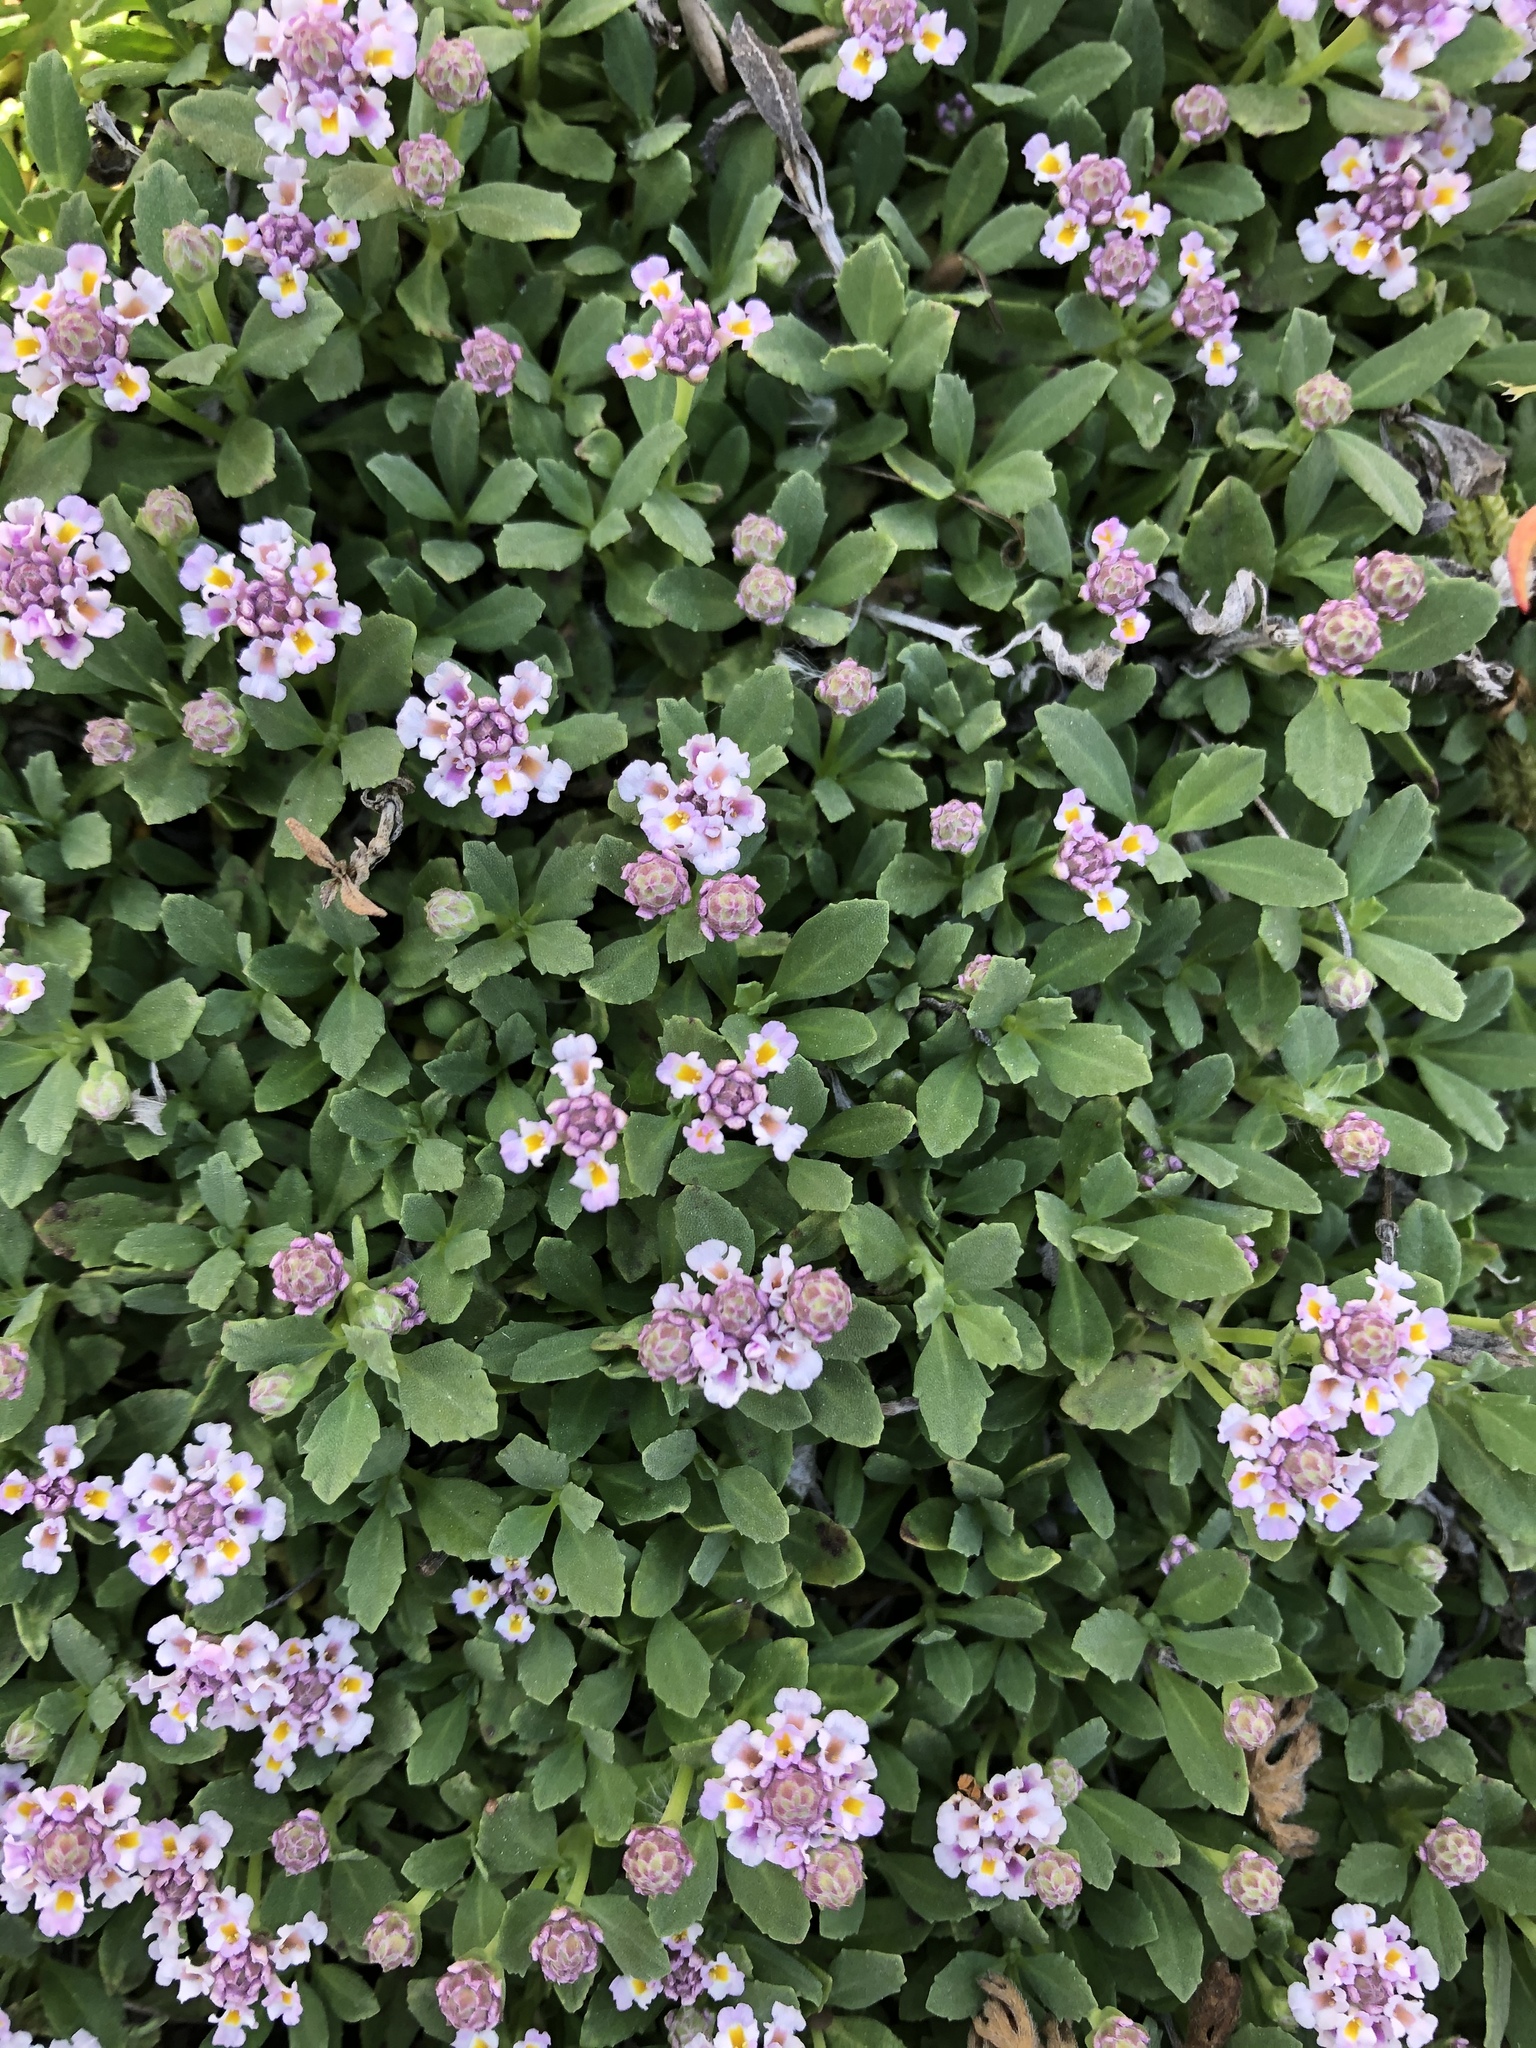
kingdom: Plantae
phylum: Tracheophyta
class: Magnoliopsida
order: Lamiales
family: Verbenaceae
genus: Phyla
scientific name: Phyla nodiflora
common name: Frogfruit
